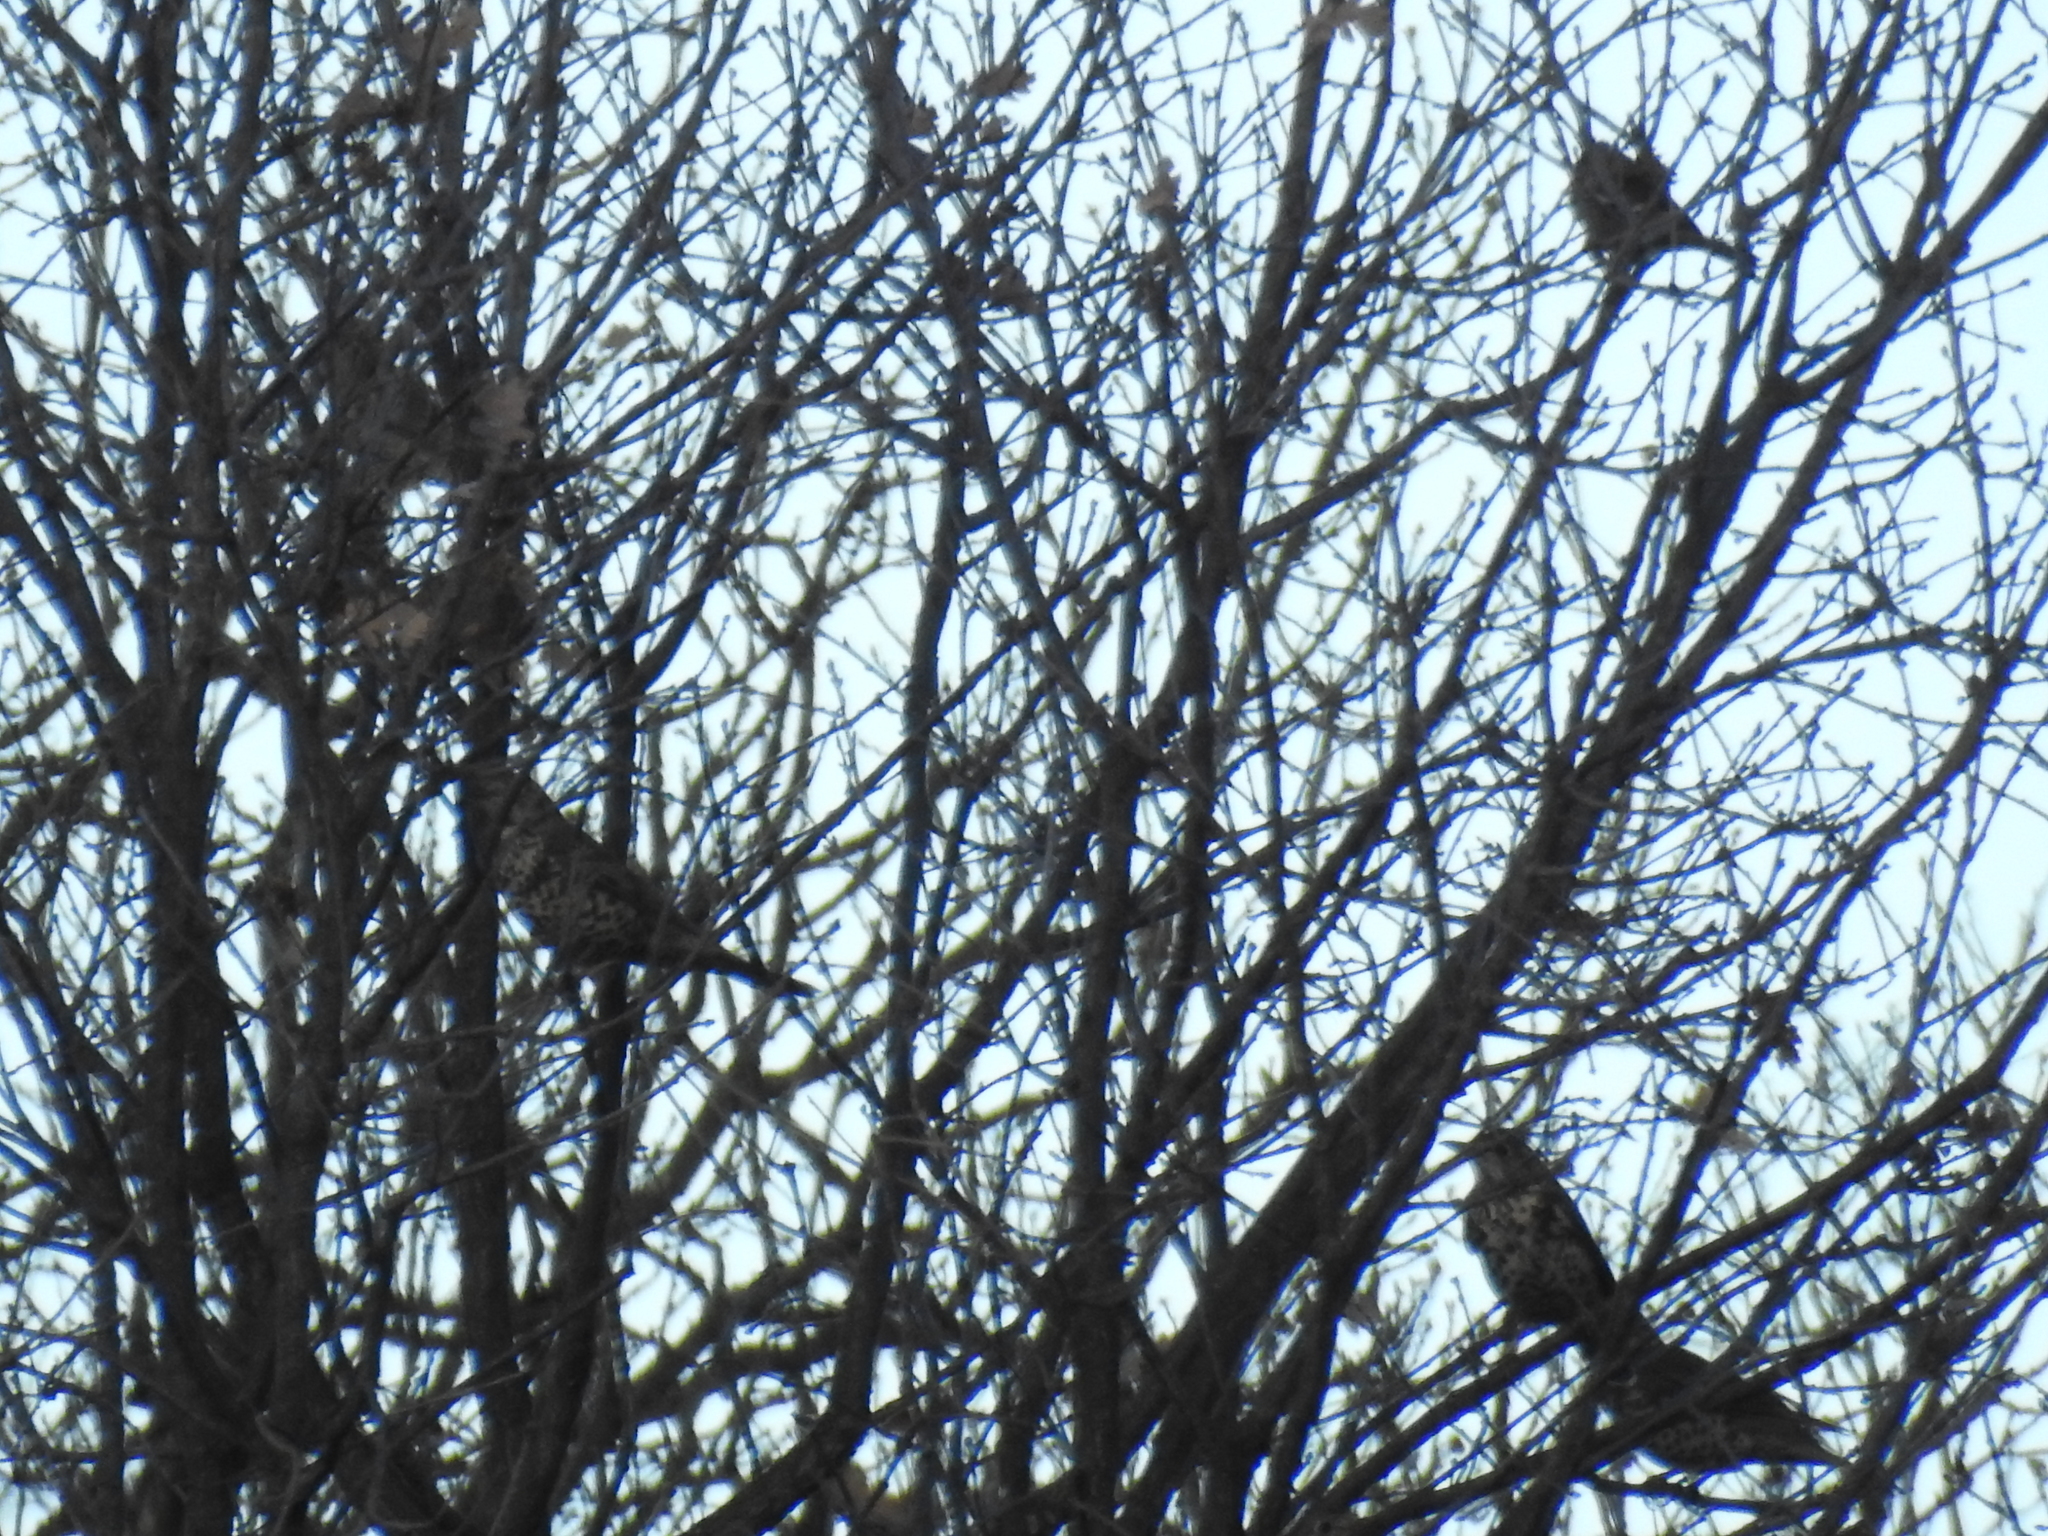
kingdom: Animalia
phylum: Chordata
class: Aves
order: Passeriformes
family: Turdidae
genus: Turdus
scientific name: Turdus viscivorus
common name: Mistle thrush
